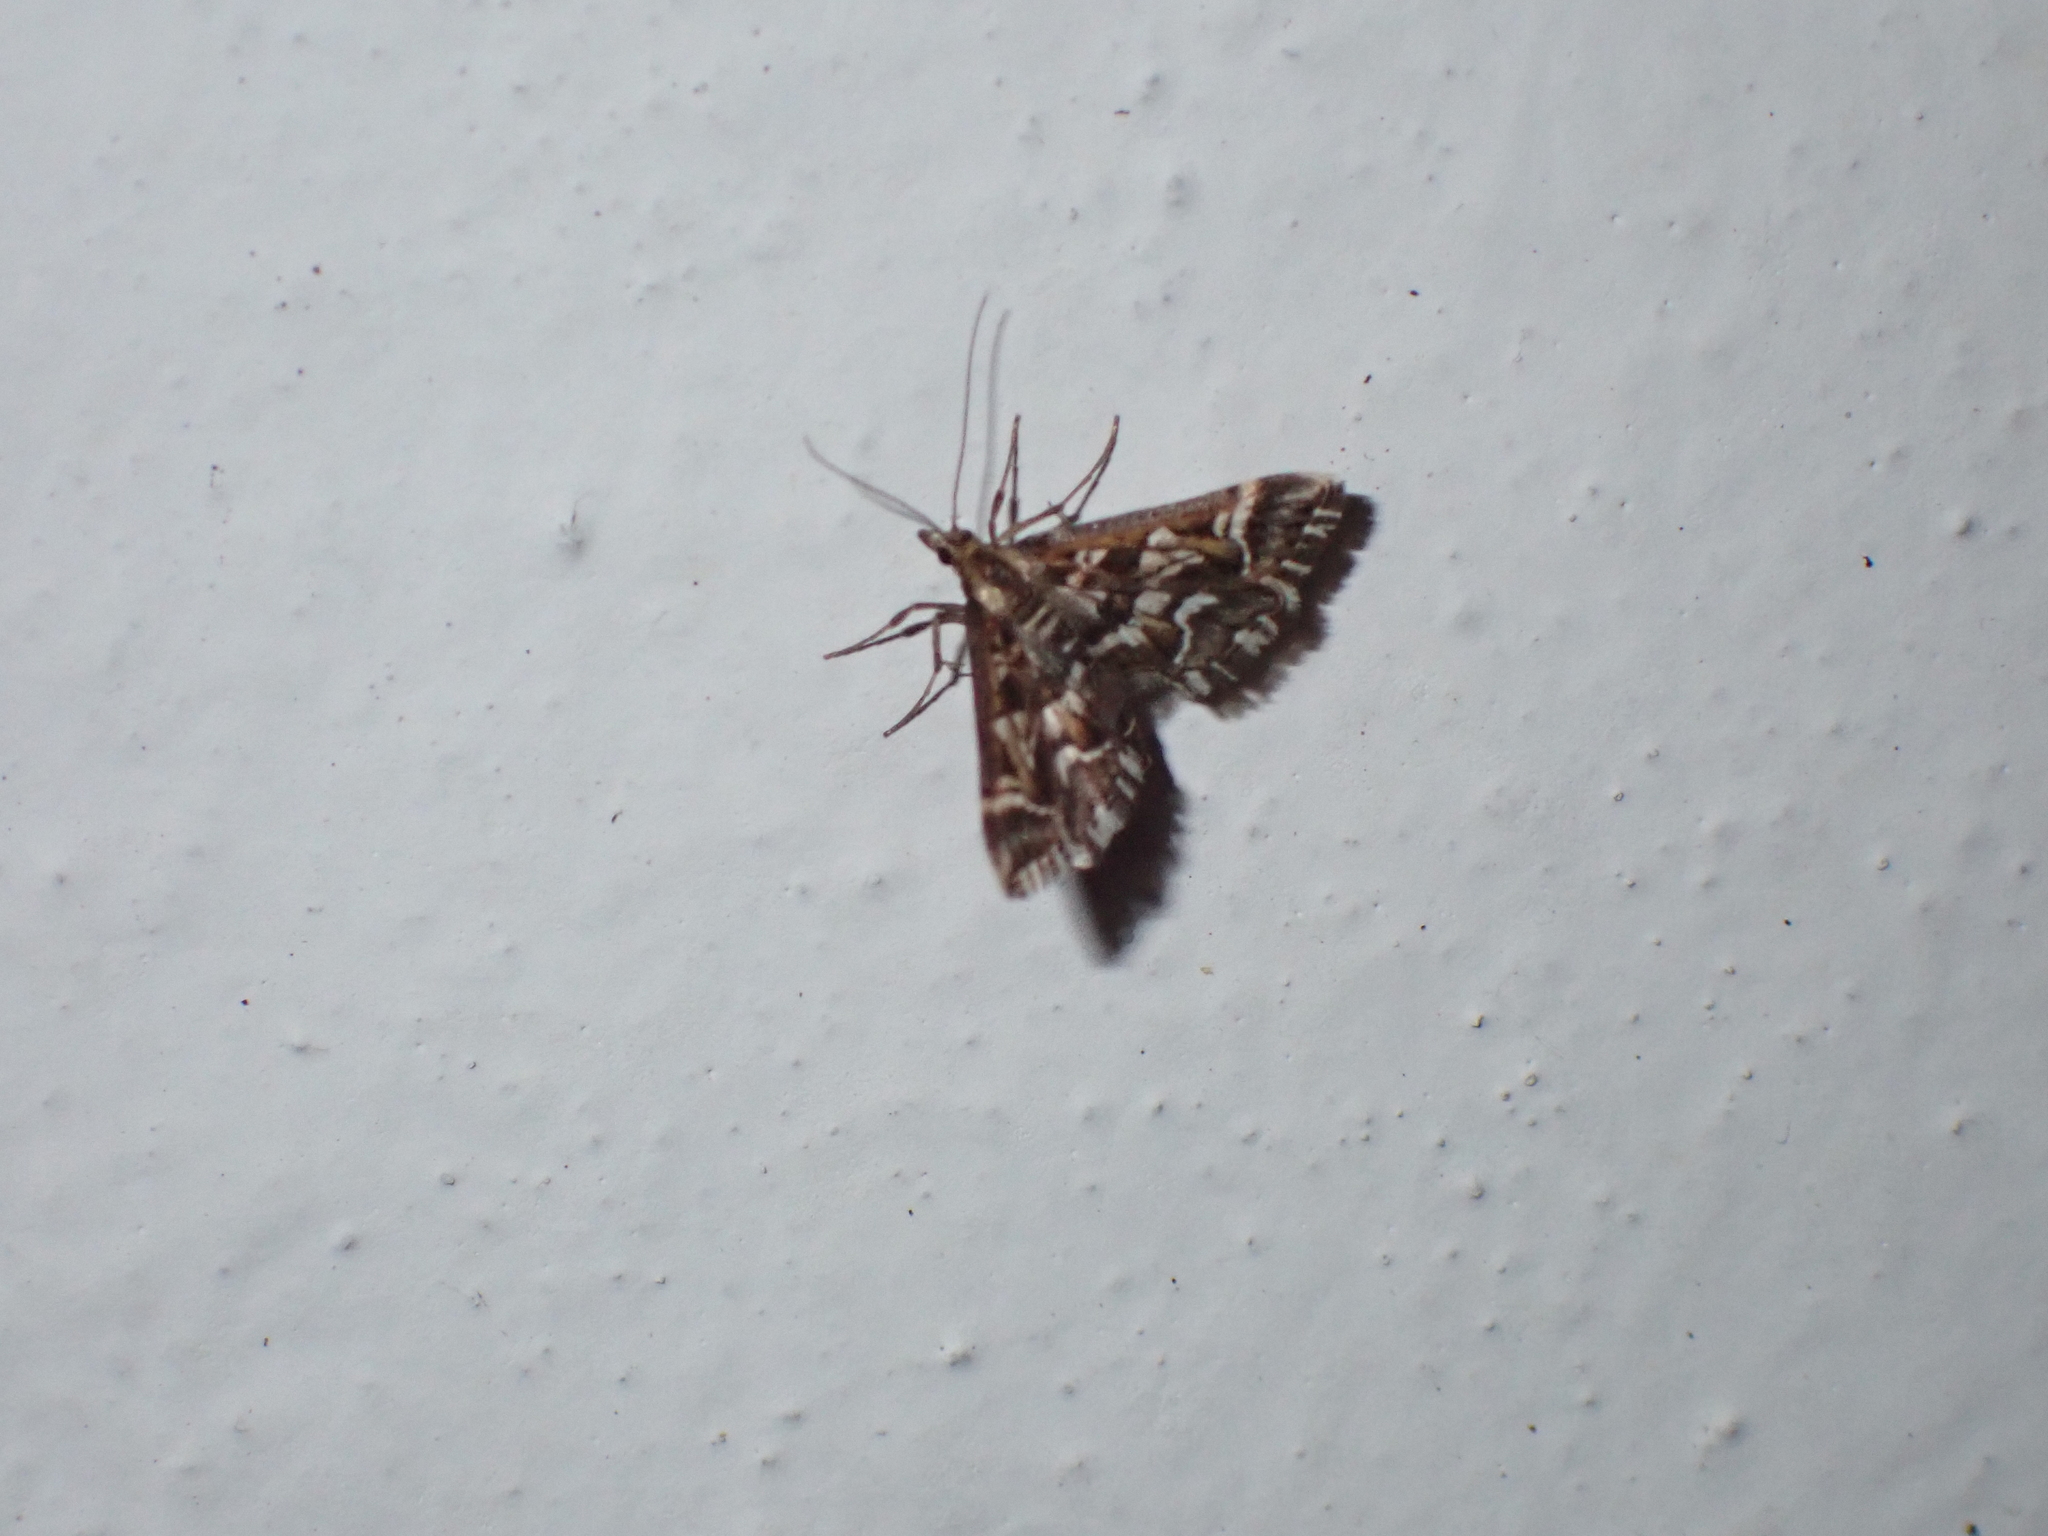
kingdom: Animalia
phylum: Arthropoda
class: Insecta
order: Lepidoptera
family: Crambidae
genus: Diasemia
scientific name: Diasemia reticularis
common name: Lettered china-mark
